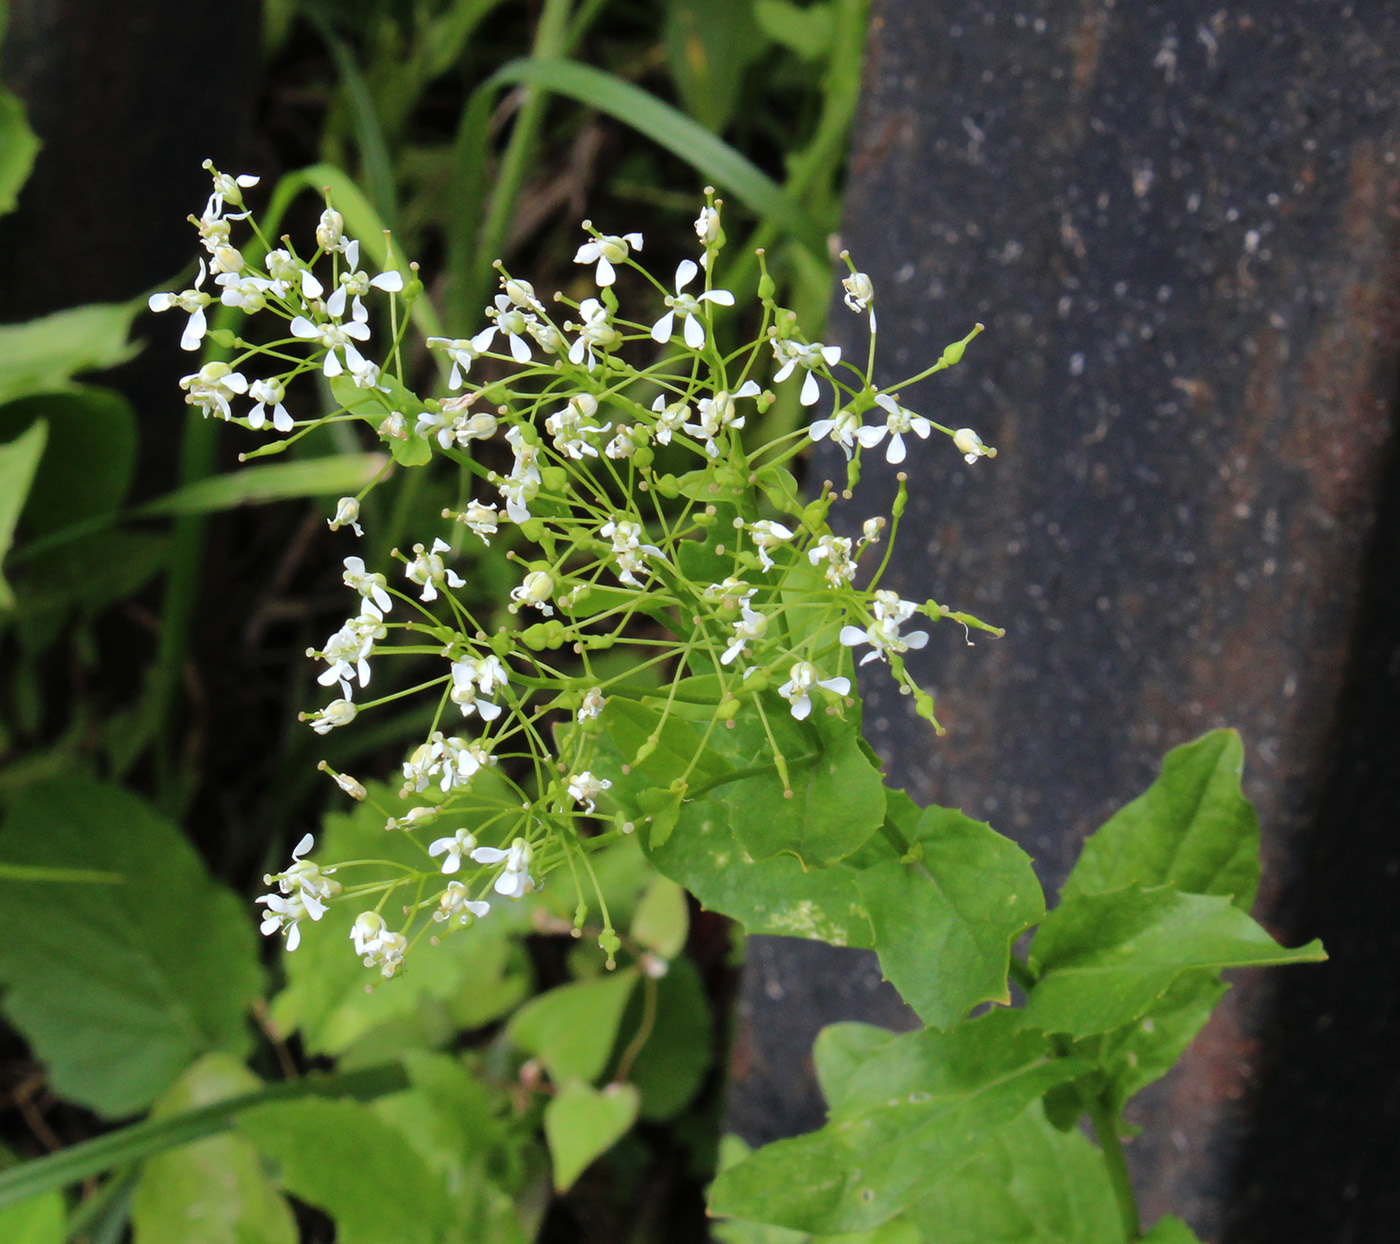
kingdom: Plantae
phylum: Tracheophyta
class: Magnoliopsida
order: Brassicales
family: Brassicaceae
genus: Lepidium
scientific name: Lepidium draba
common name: Hoary cress
